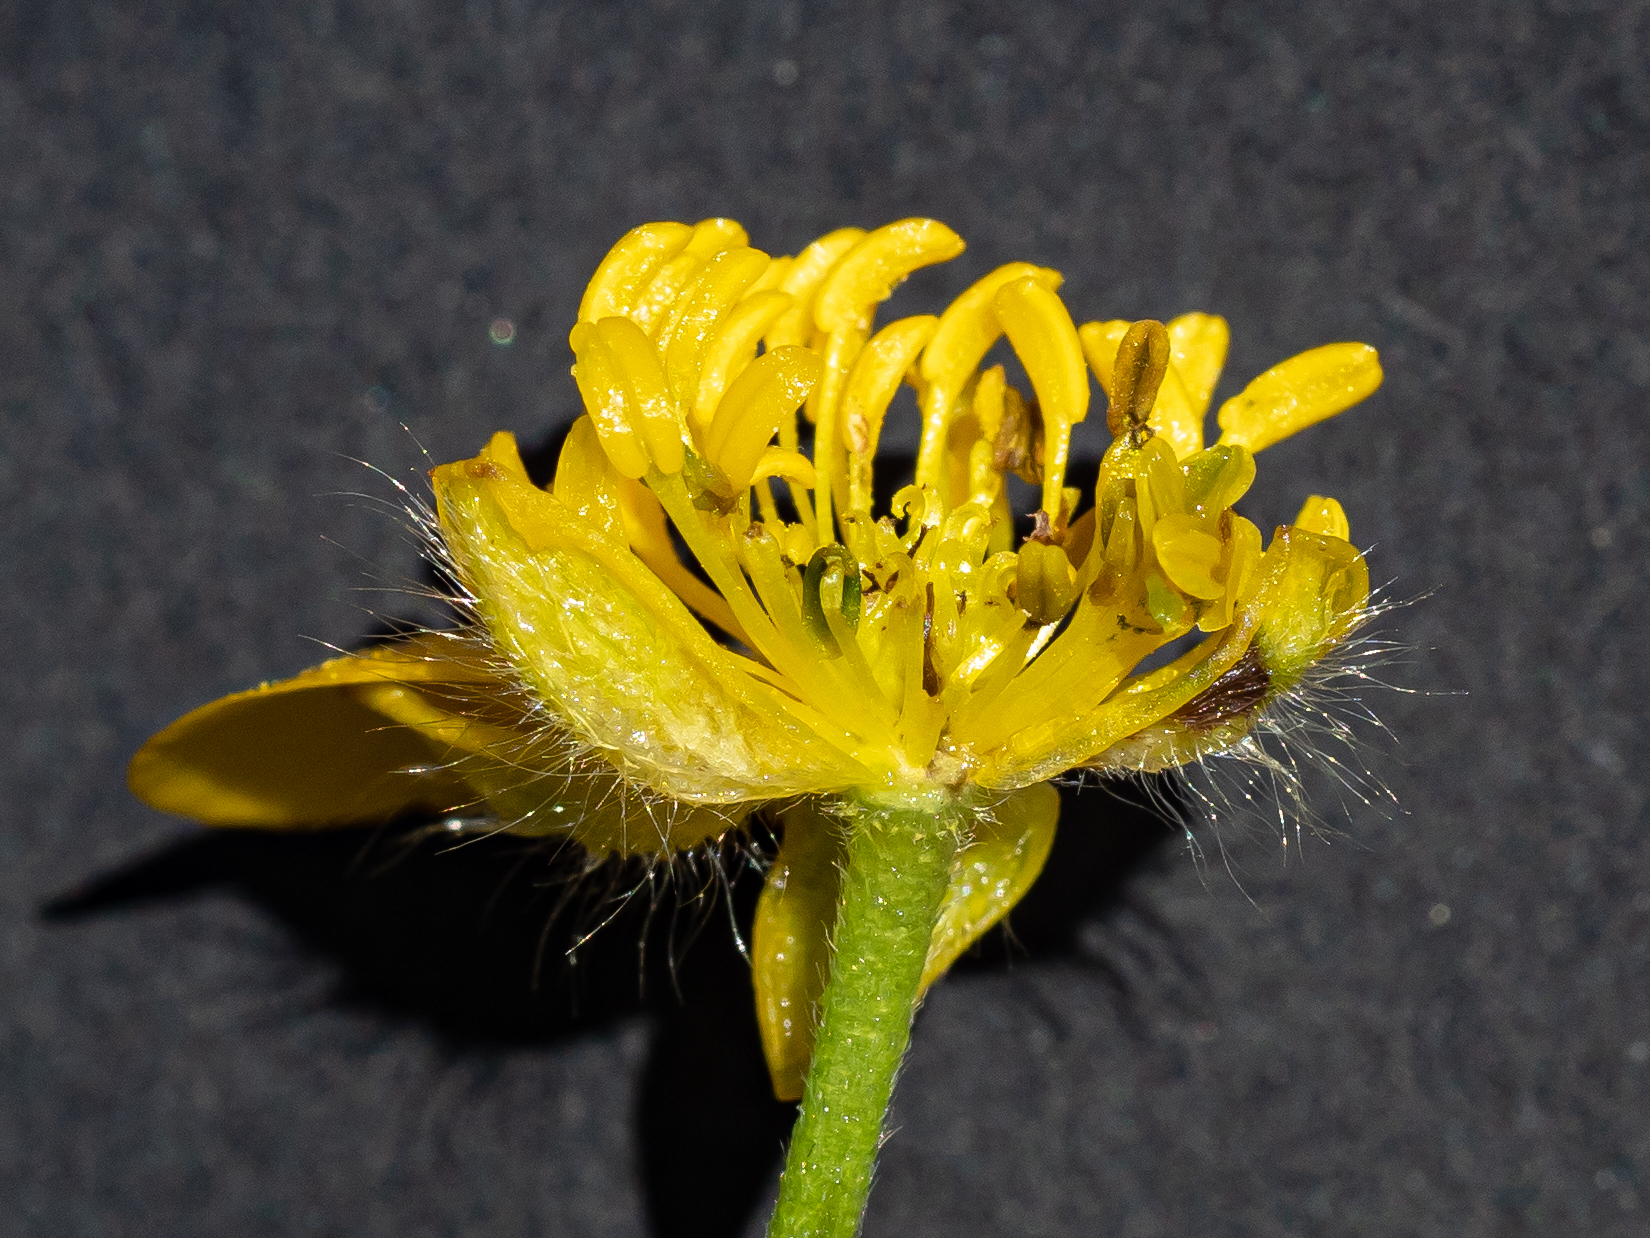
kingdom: Plantae
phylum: Tracheophyta
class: Magnoliopsida
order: Ranunculales
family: Ranunculaceae
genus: Ranunculus
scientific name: Ranunculus lanuginosus
